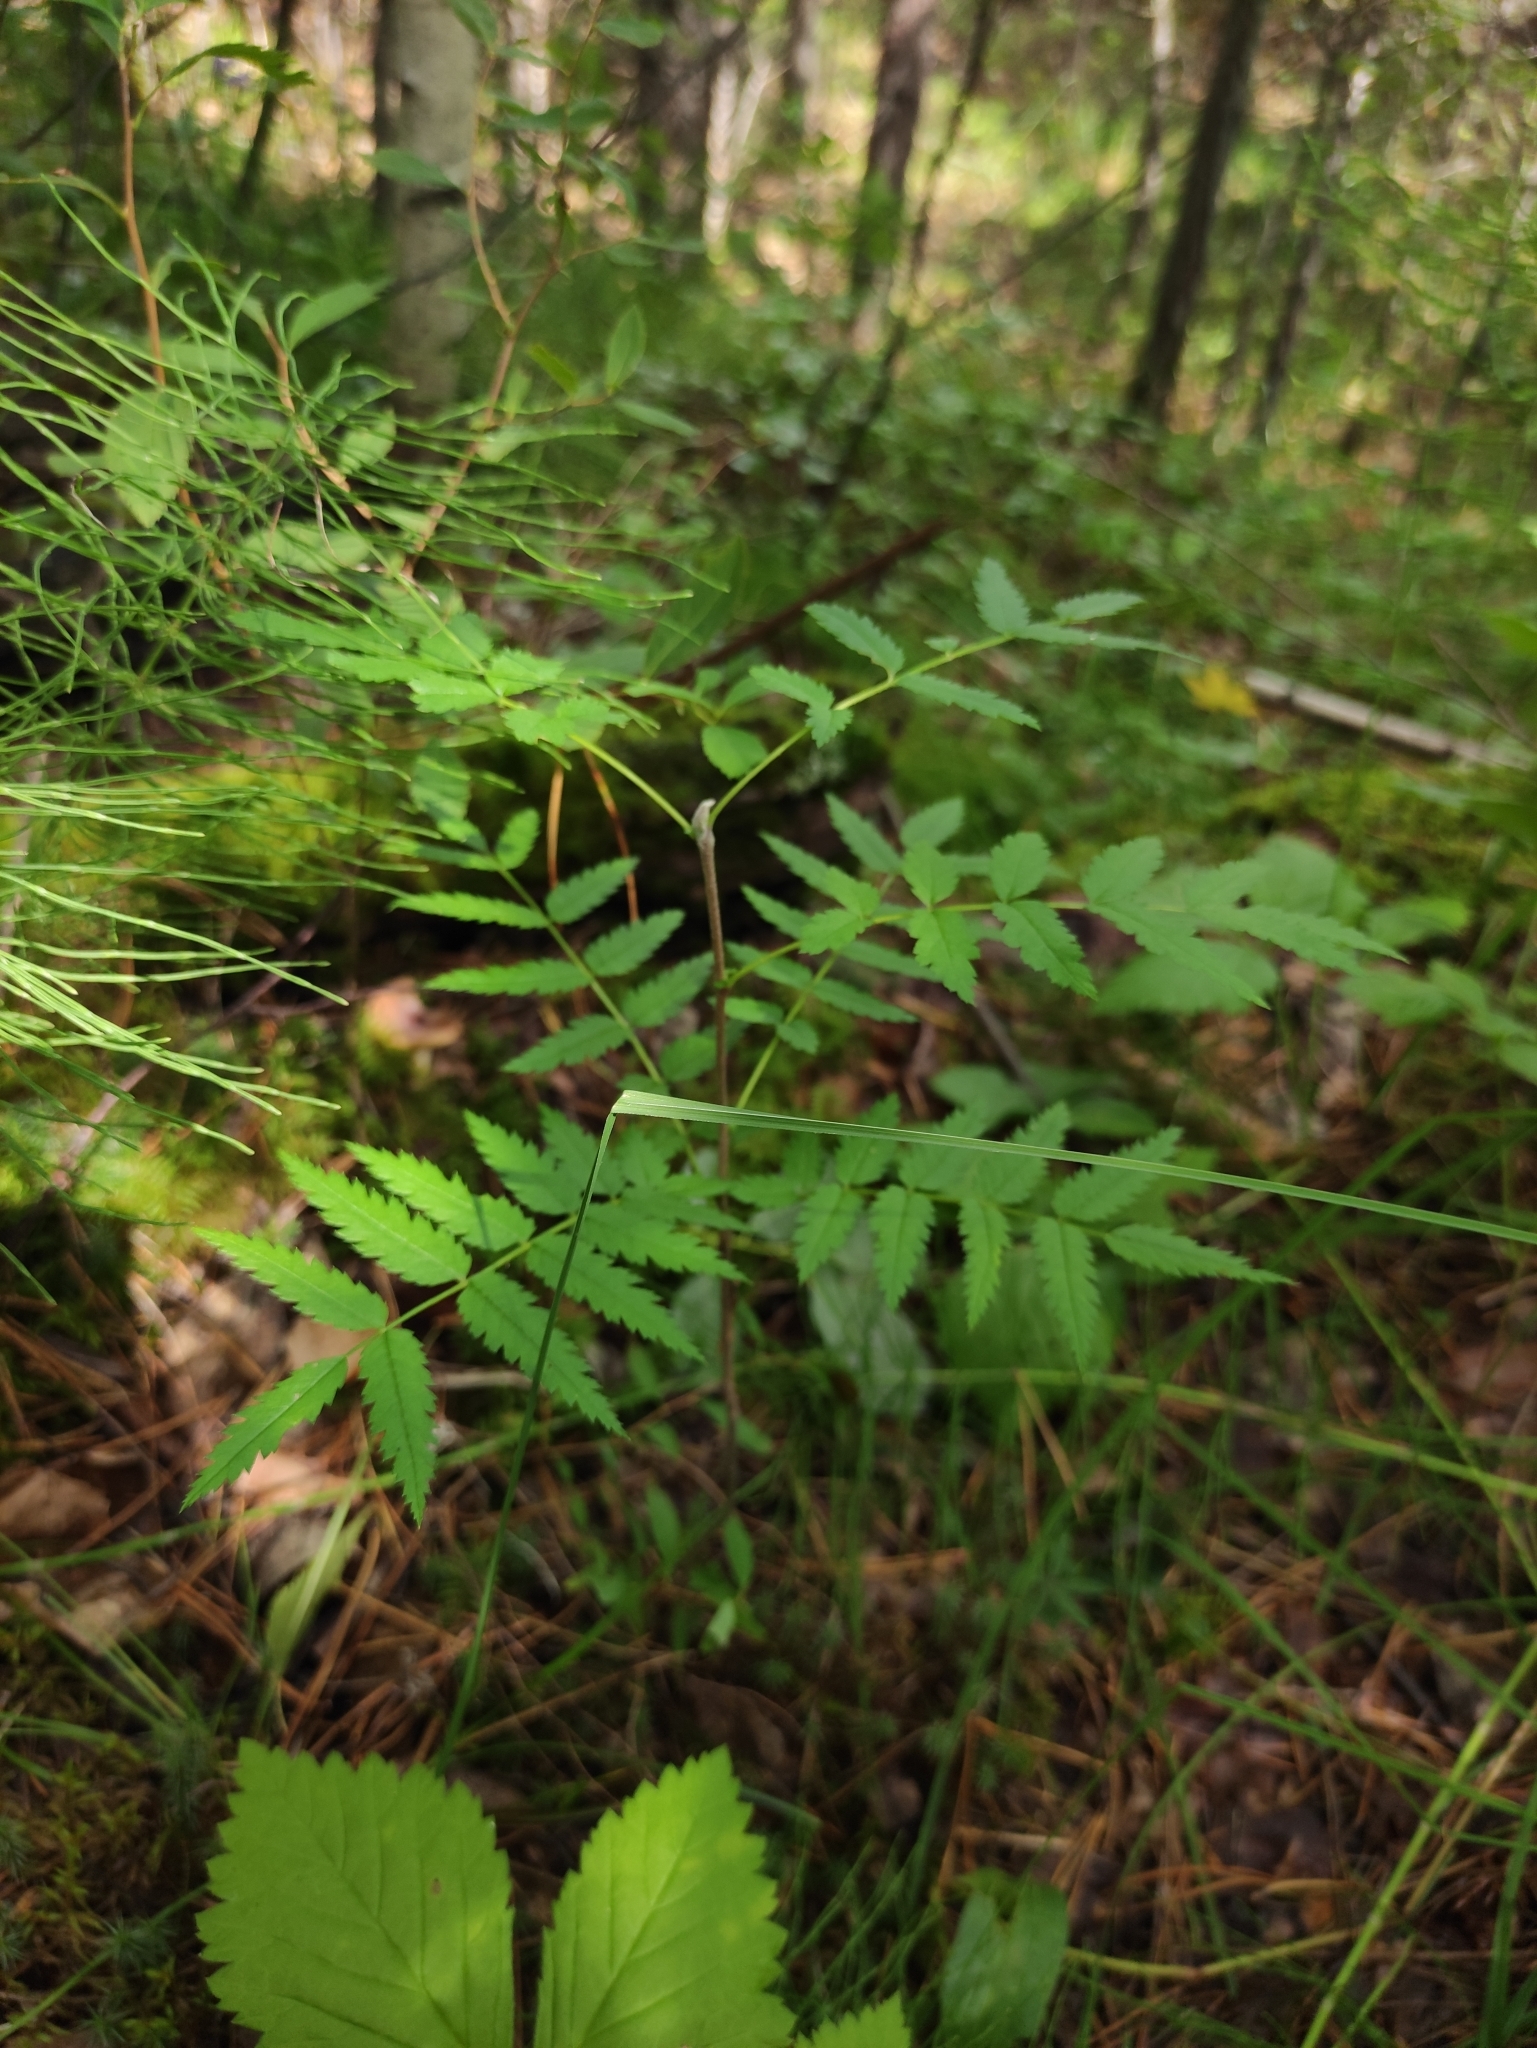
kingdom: Plantae
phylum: Tracheophyta
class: Magnoliopsida
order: Rosales
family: Rosaceae
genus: Sorbus
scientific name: Sorbus aucuparia
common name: Rowan
